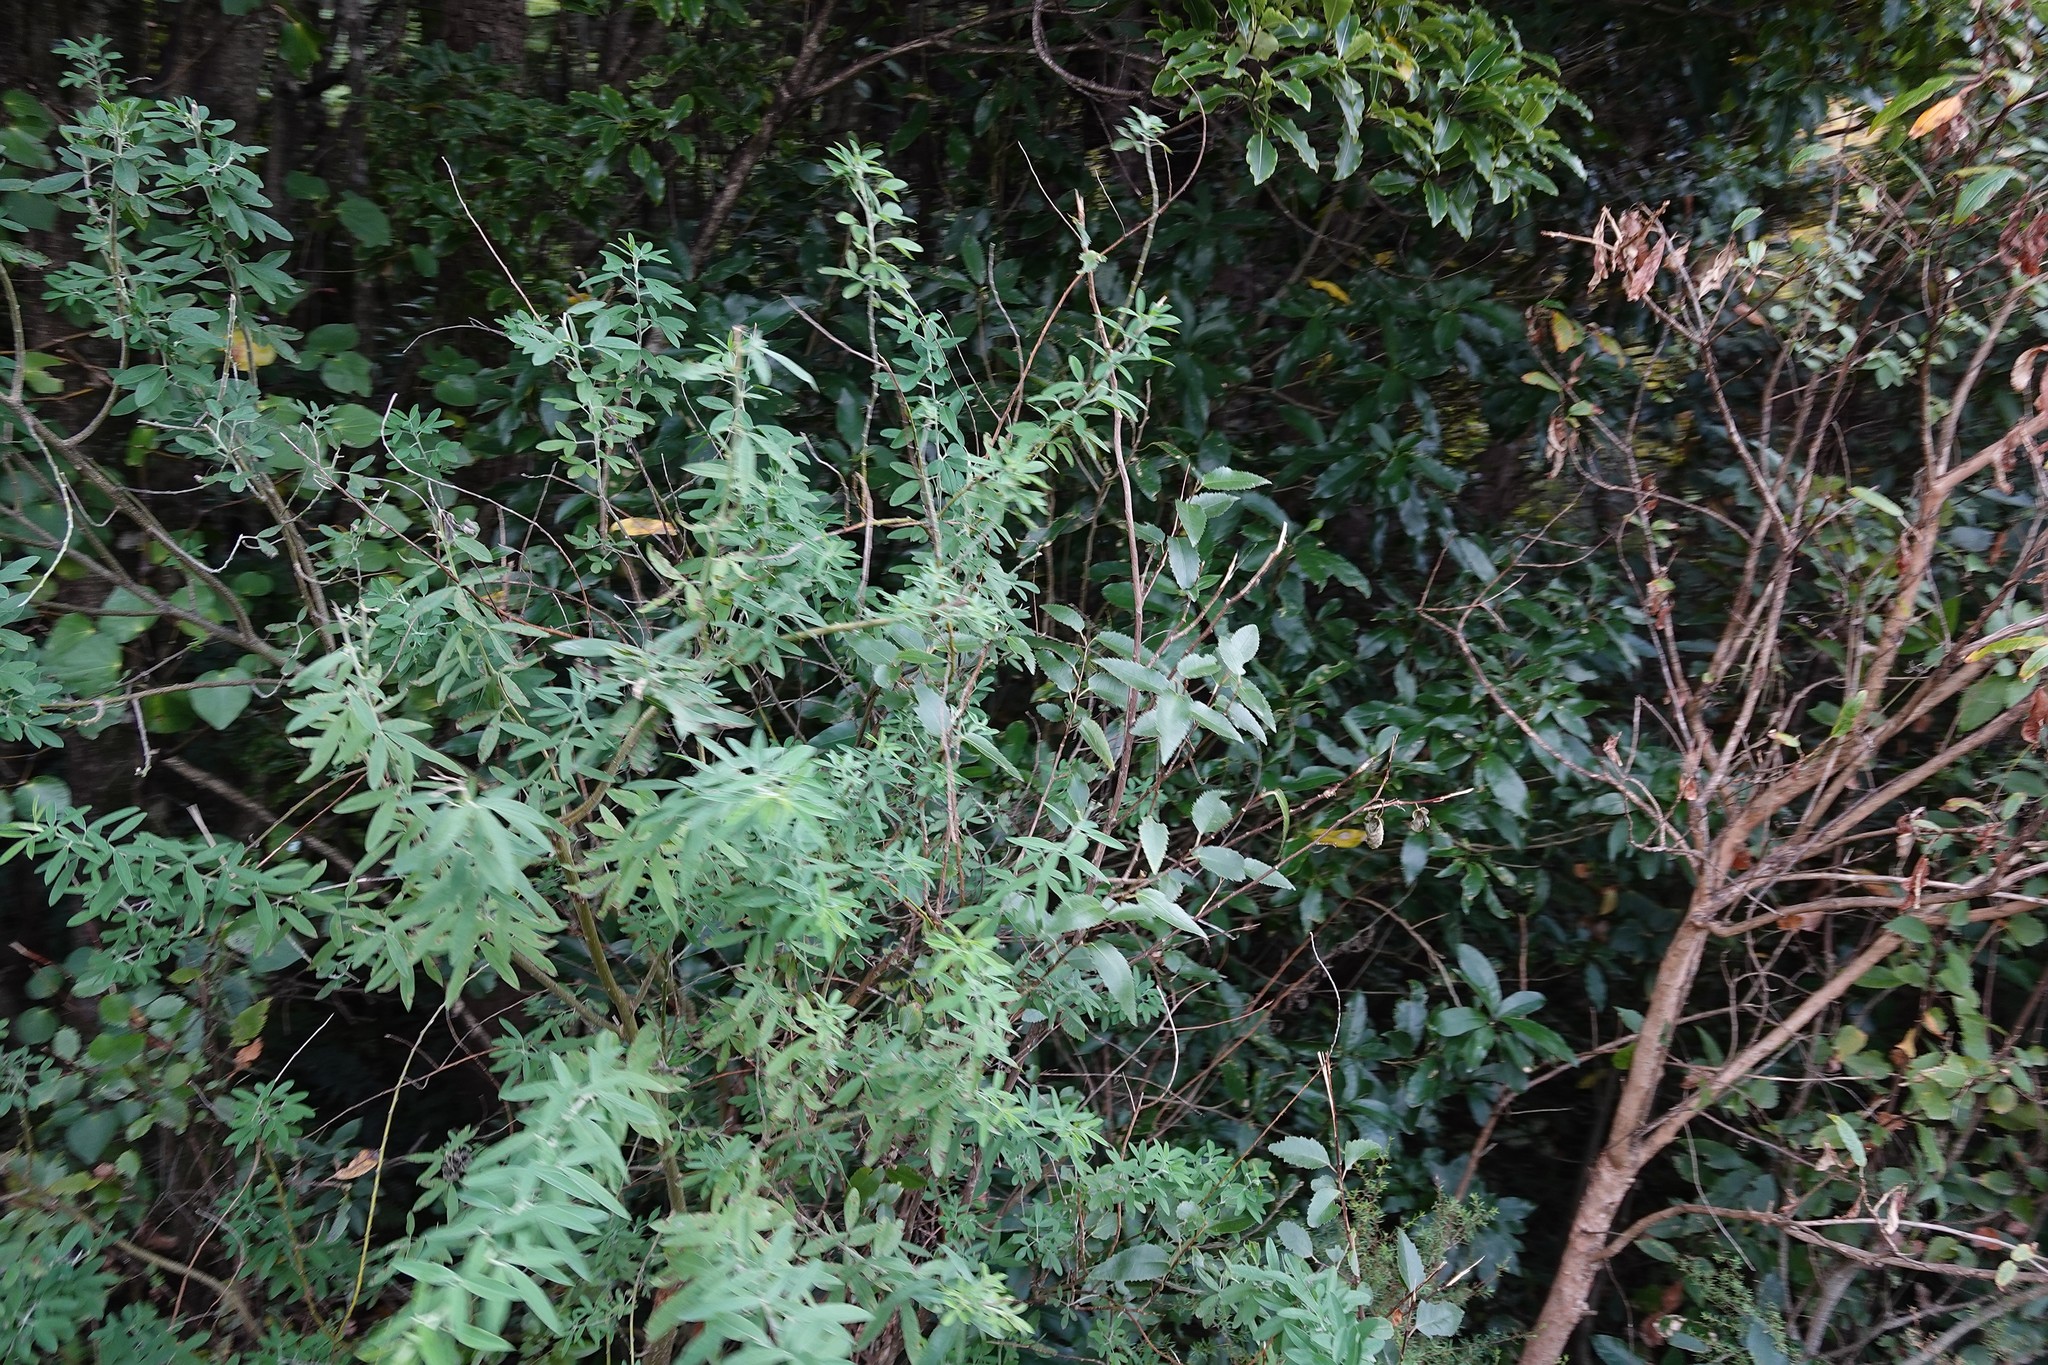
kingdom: Plantae
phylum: Tracheophyta
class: Magnoliopsida
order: Fabales
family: Fabaceae
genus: Chamaecytisus
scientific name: Chamaecytisus prolifer
